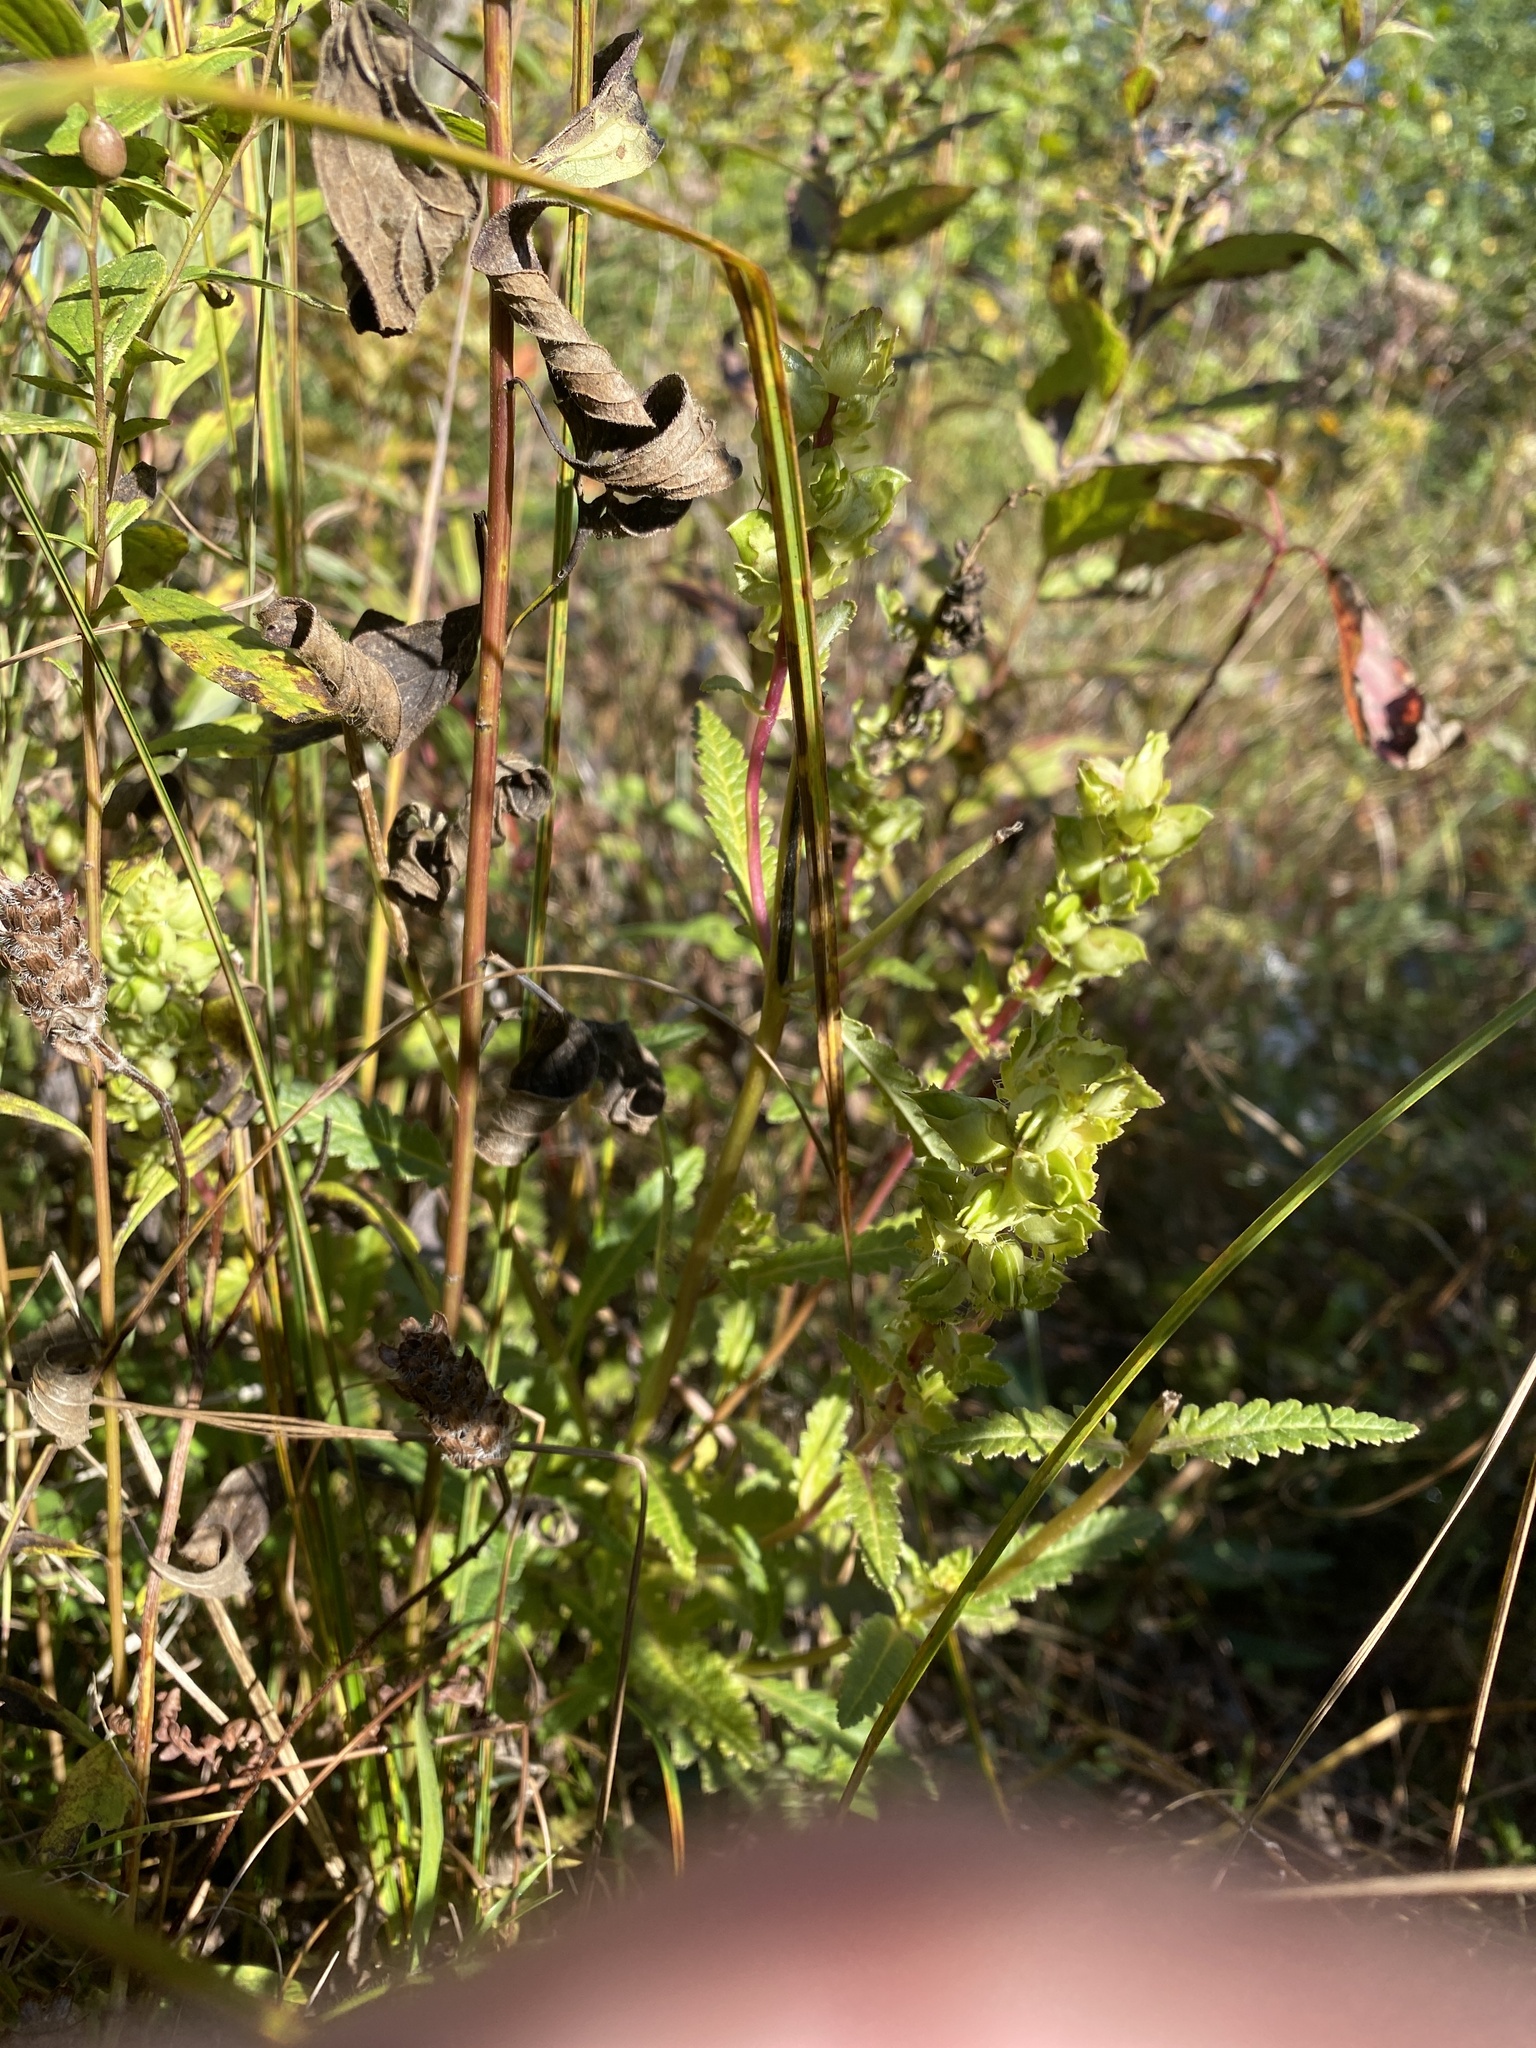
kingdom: Plantae
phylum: Tracheophyta
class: Magnoliopsida
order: Lamiales
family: Orobanchaceae
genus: Pedicularis
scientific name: Pedicularis lanceolata
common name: Swamp lousewort
